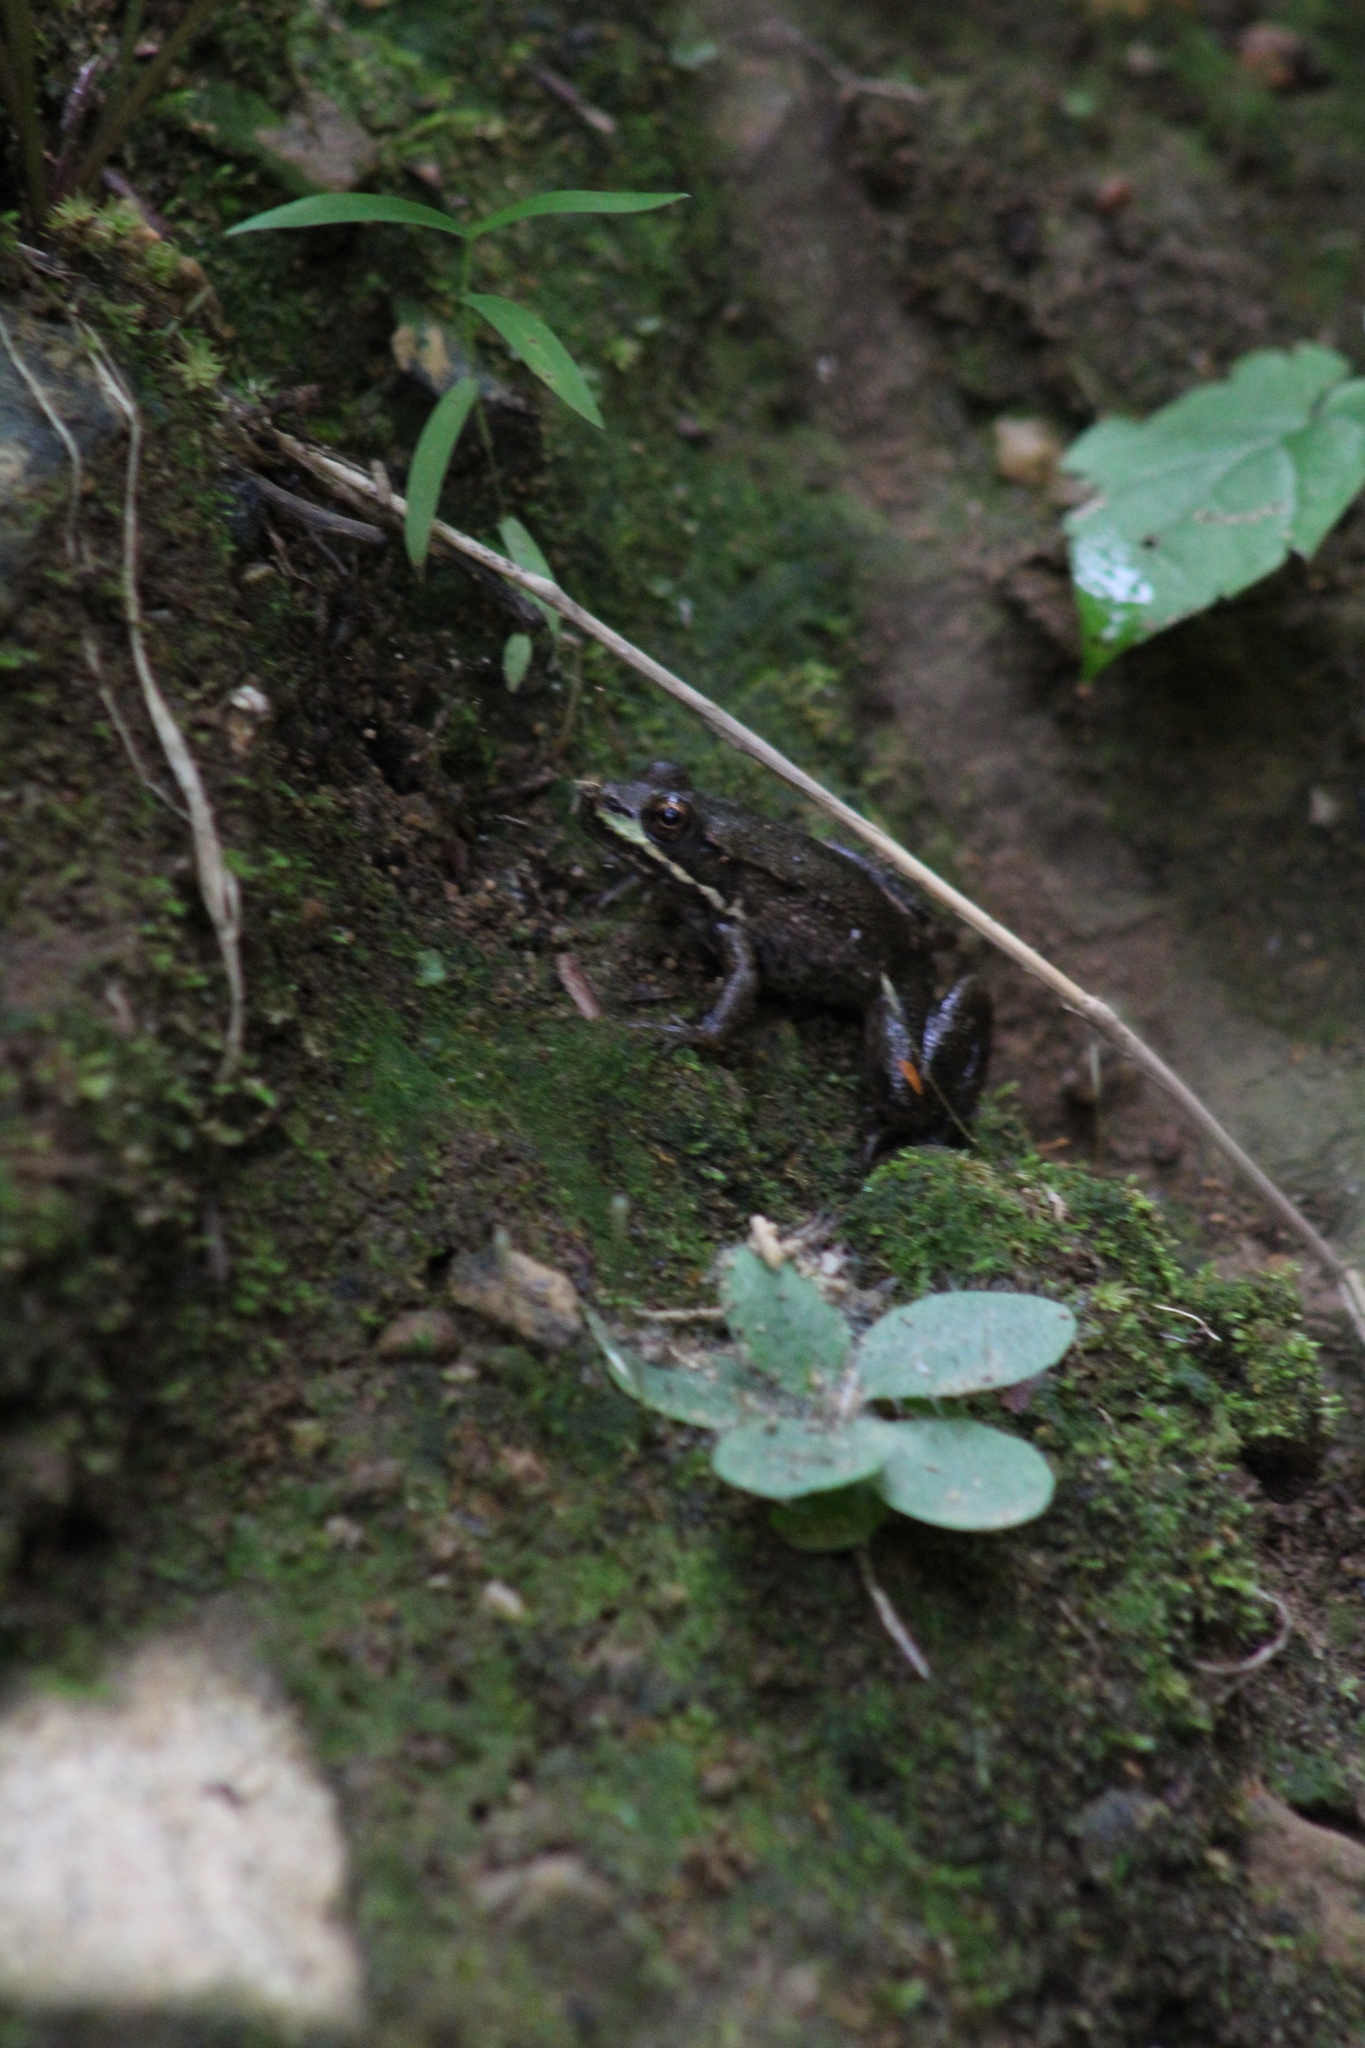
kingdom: Animalia
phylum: Chordata
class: Amphibia
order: Anura
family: Ranidae
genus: Lithobates
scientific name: Lithobates clamitans
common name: Green frog
